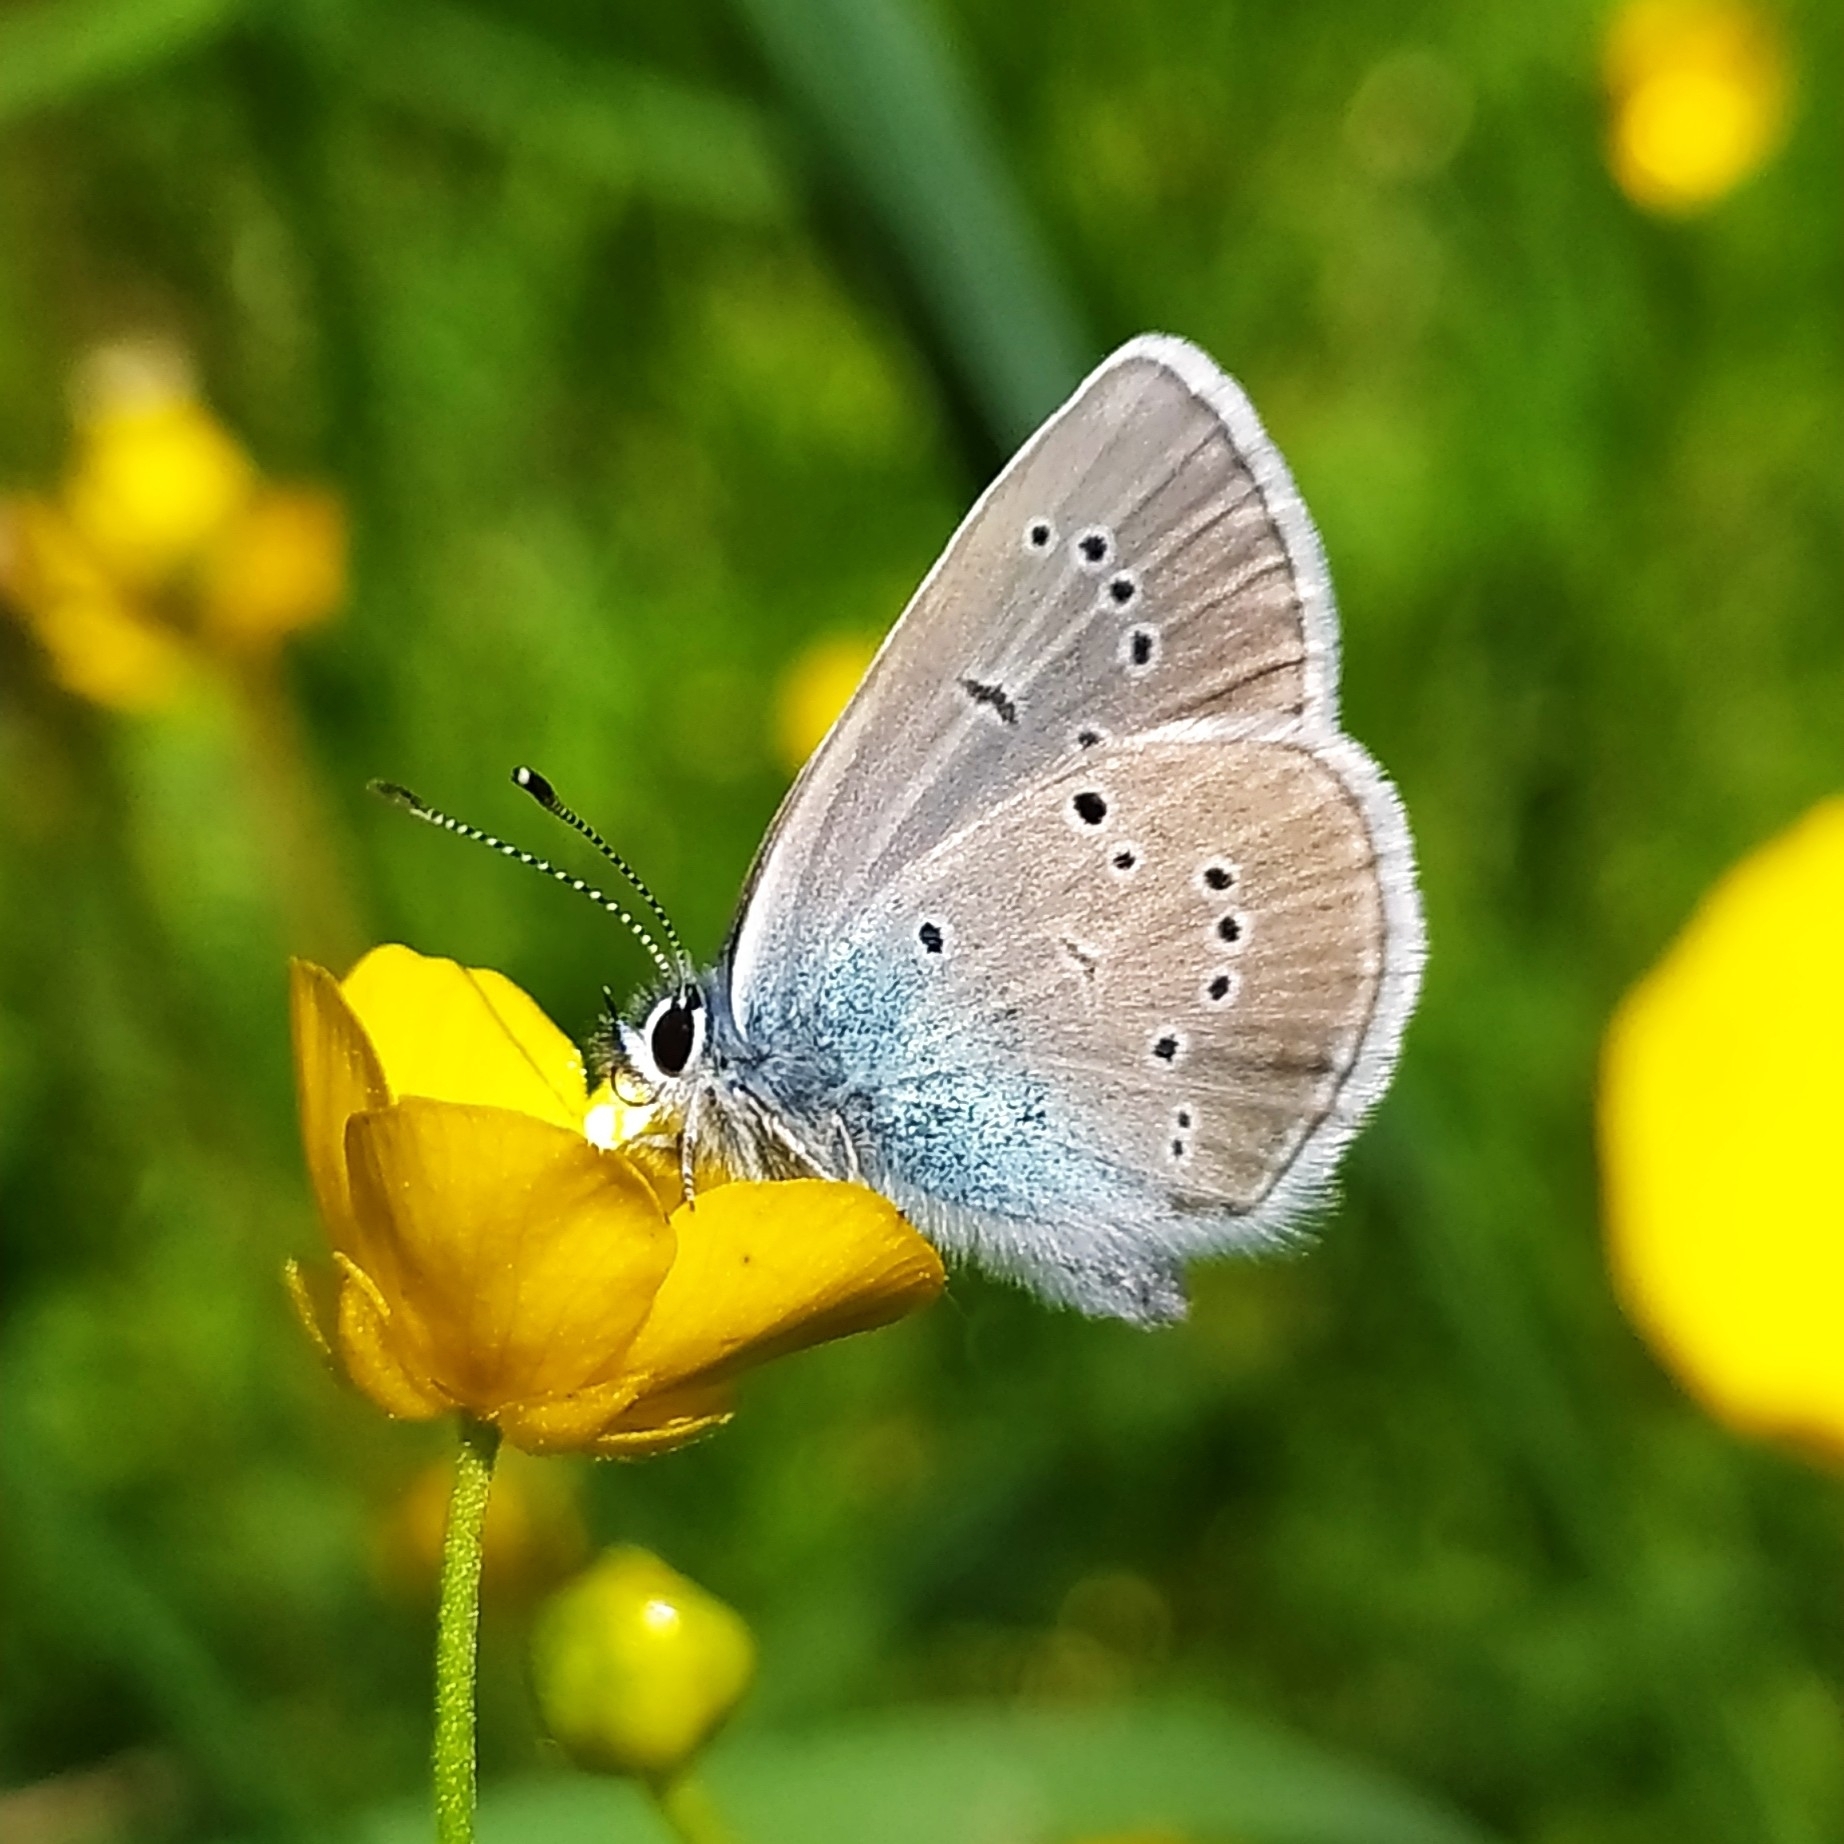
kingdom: Animalia
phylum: Arthropoda
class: Insecta
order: Lepidoptera
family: Lycaenidae
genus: Cyaniris
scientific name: Cyaniris semiargus
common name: Mazarine blue
